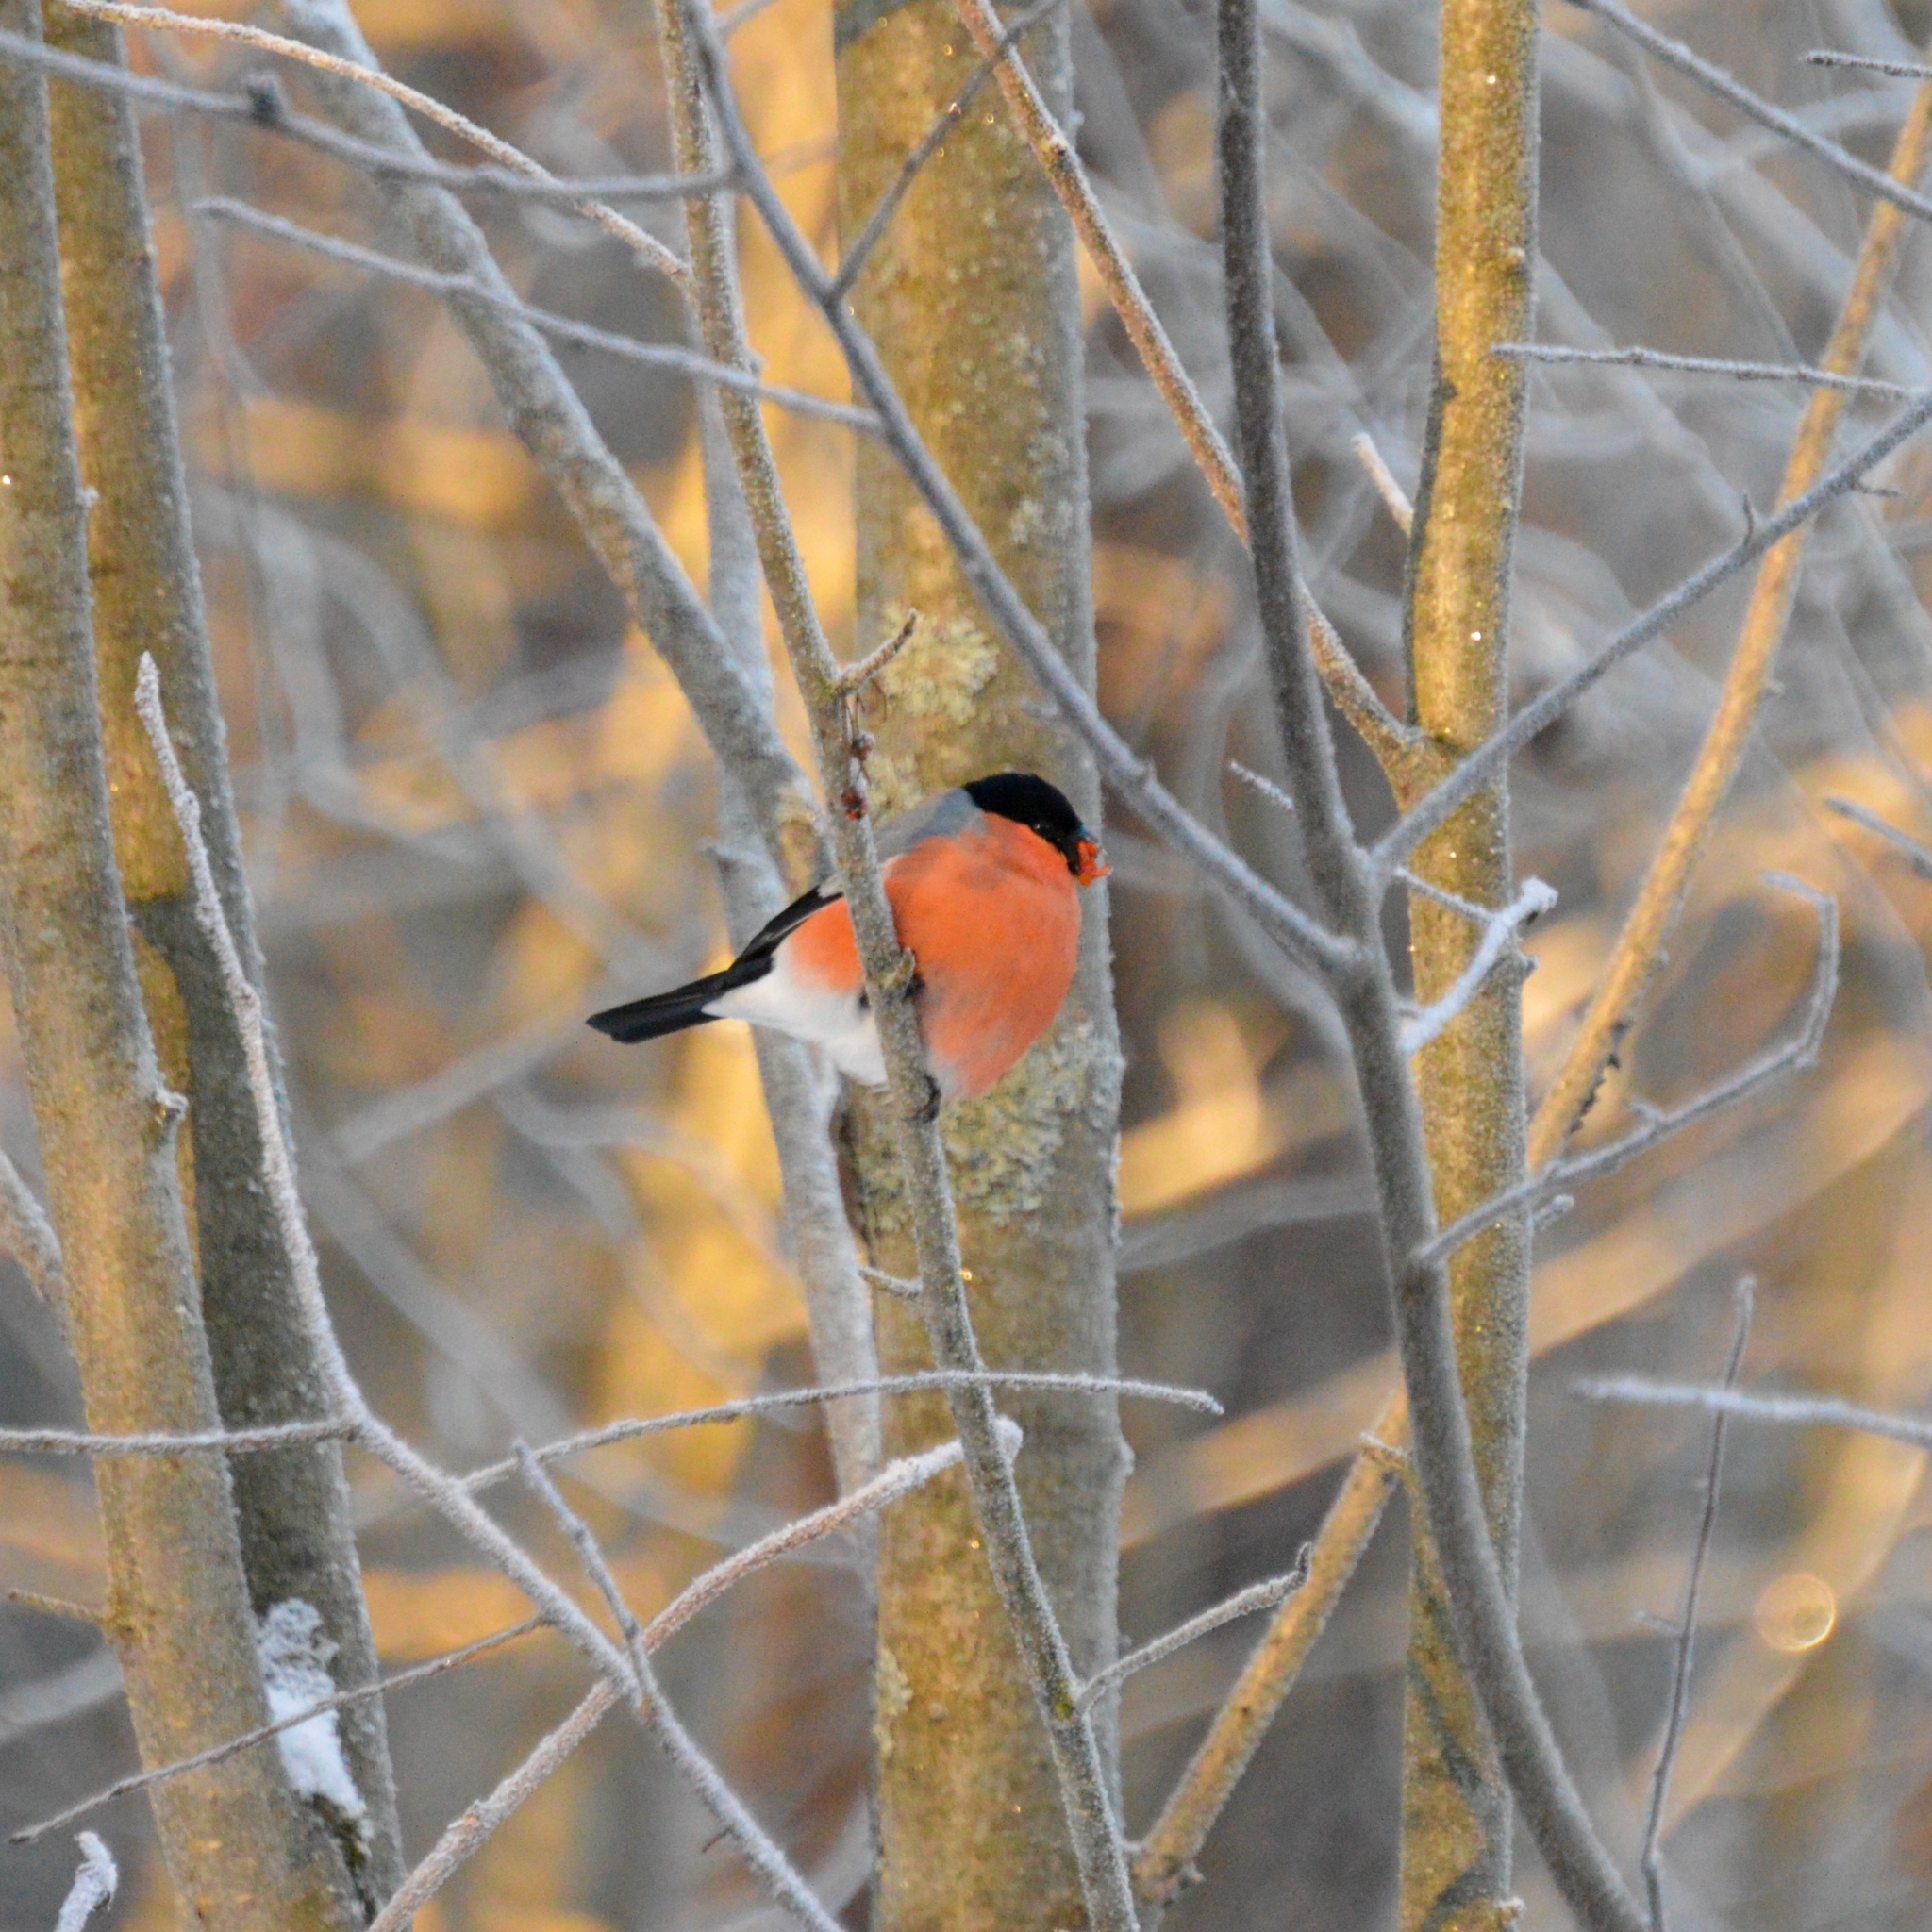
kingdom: Animalia
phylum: Chordata
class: Aves
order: Passeriformes
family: Fringillidae
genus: Pyrrhula
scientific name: Pyrrhula pyrrhula
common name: Eurasian bullfinch
